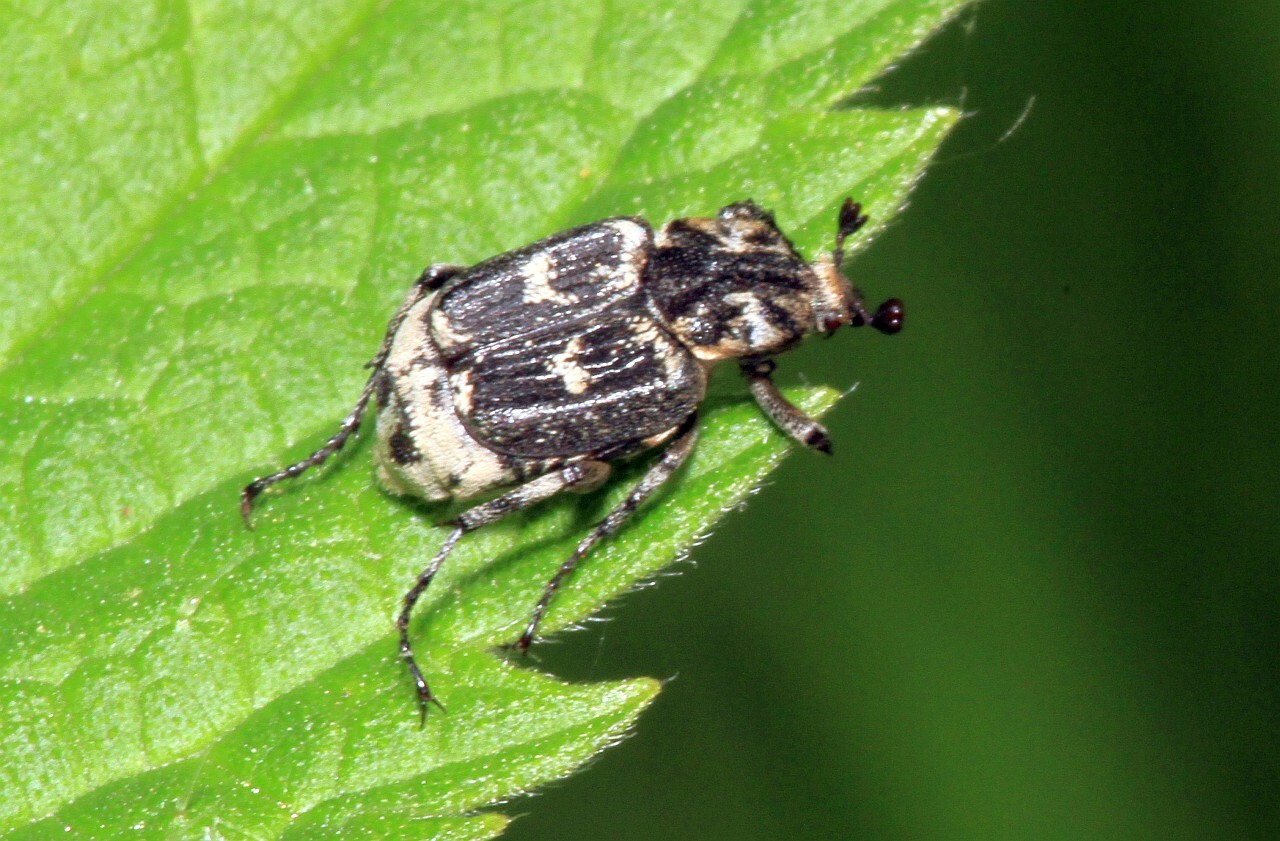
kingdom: Animalia
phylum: Arthropoda
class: Insecta
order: Coleoptera
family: Scarabaeidae
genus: Valgus
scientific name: Valgus hemipterus
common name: Bug flower chafer
